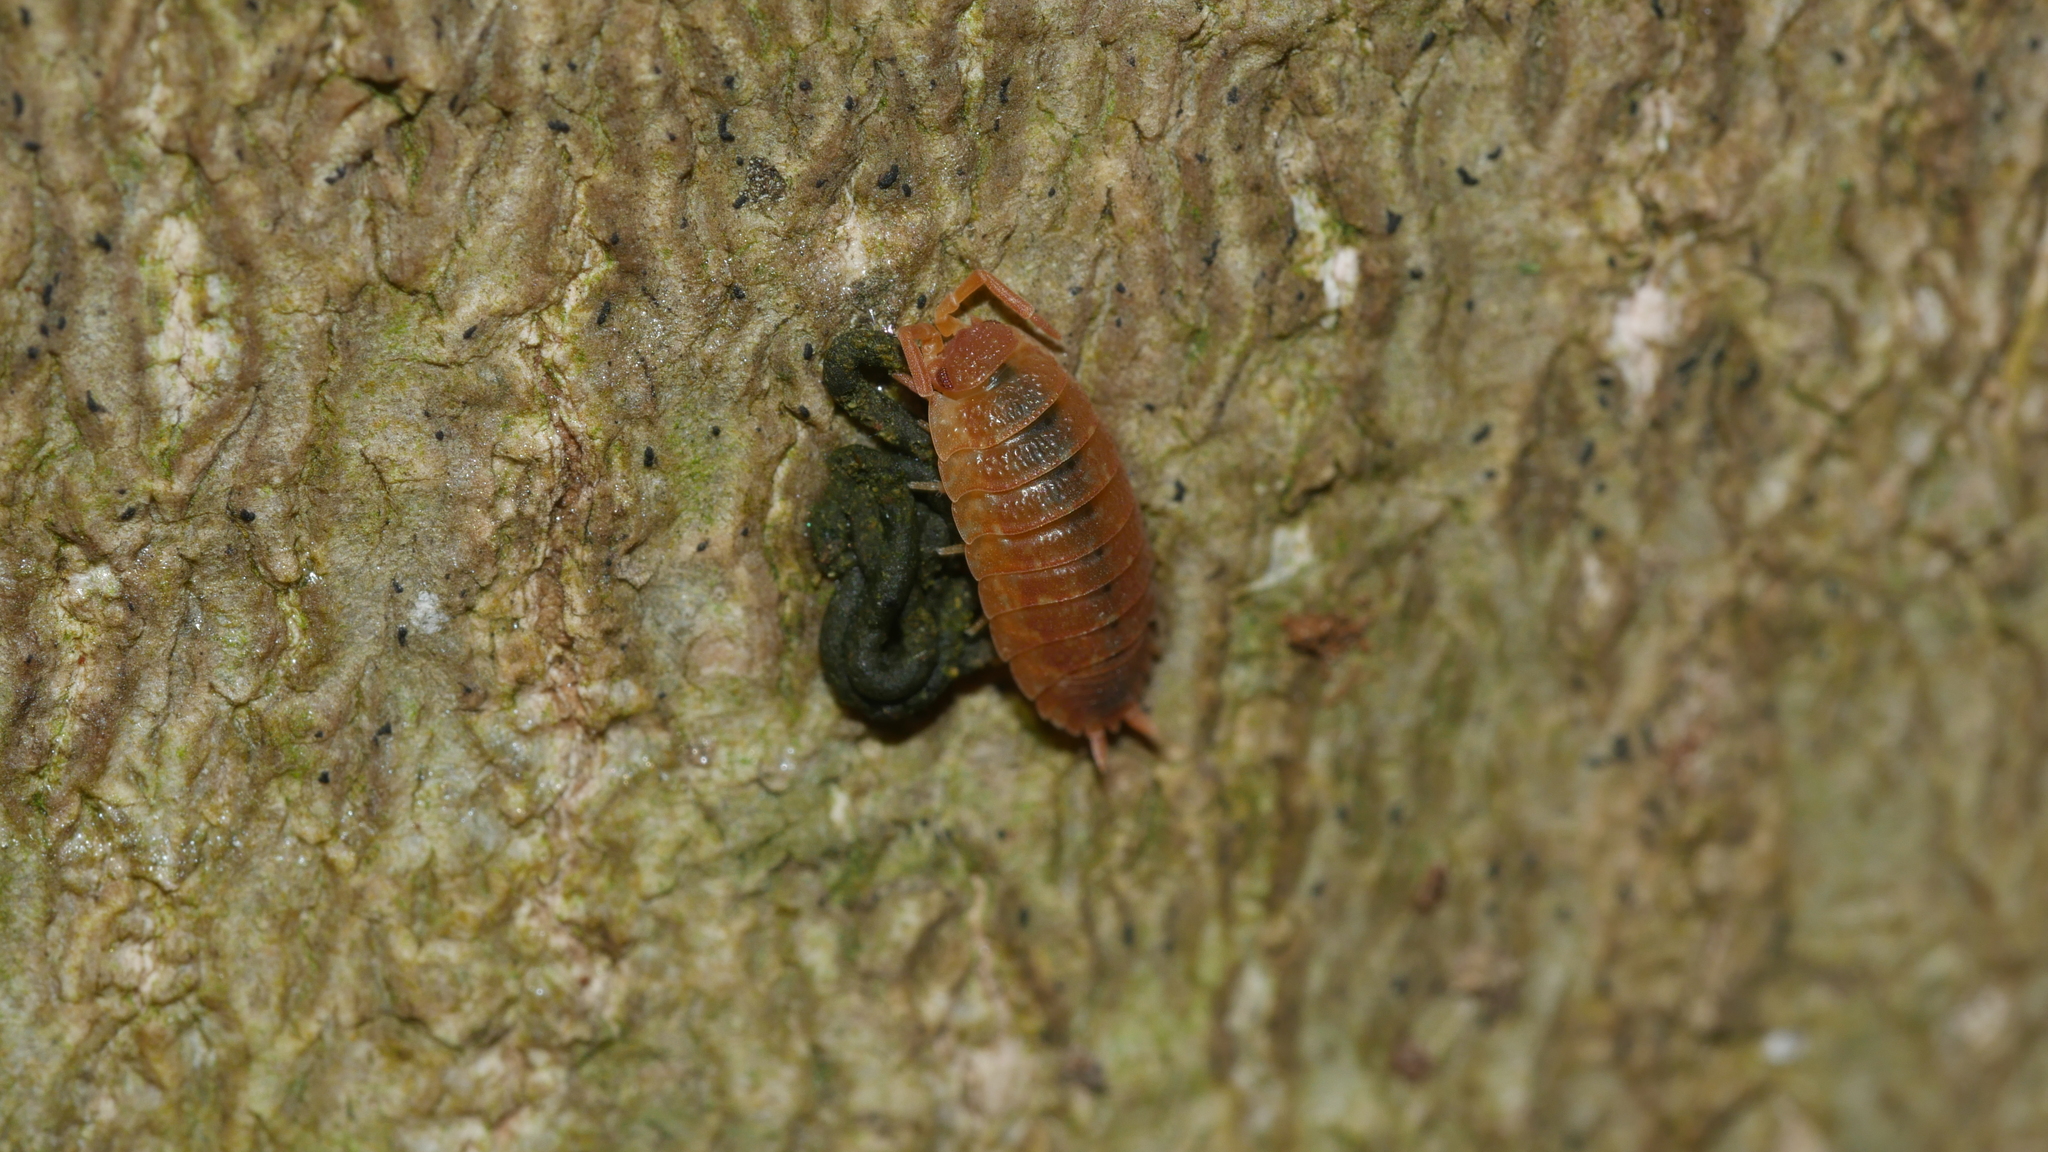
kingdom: Animalia
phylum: Arthropoda
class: Malacostraca
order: Isopoda
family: Porcellionidae
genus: Porcellio
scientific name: Porcellio scaber
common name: Common rough woodlouse
